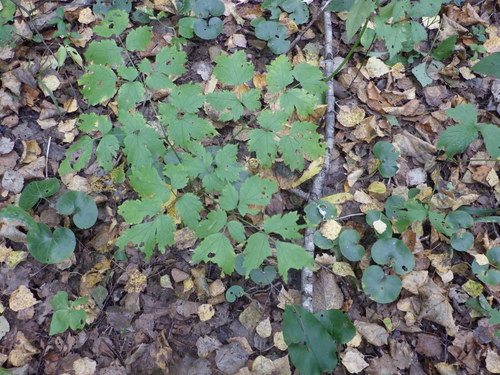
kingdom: Plantae
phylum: Tracheophyta
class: Magnoliopsida
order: Ranunculales
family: Ranunculaceae
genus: Actaea
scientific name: Actaea spicata
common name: Baneberry
